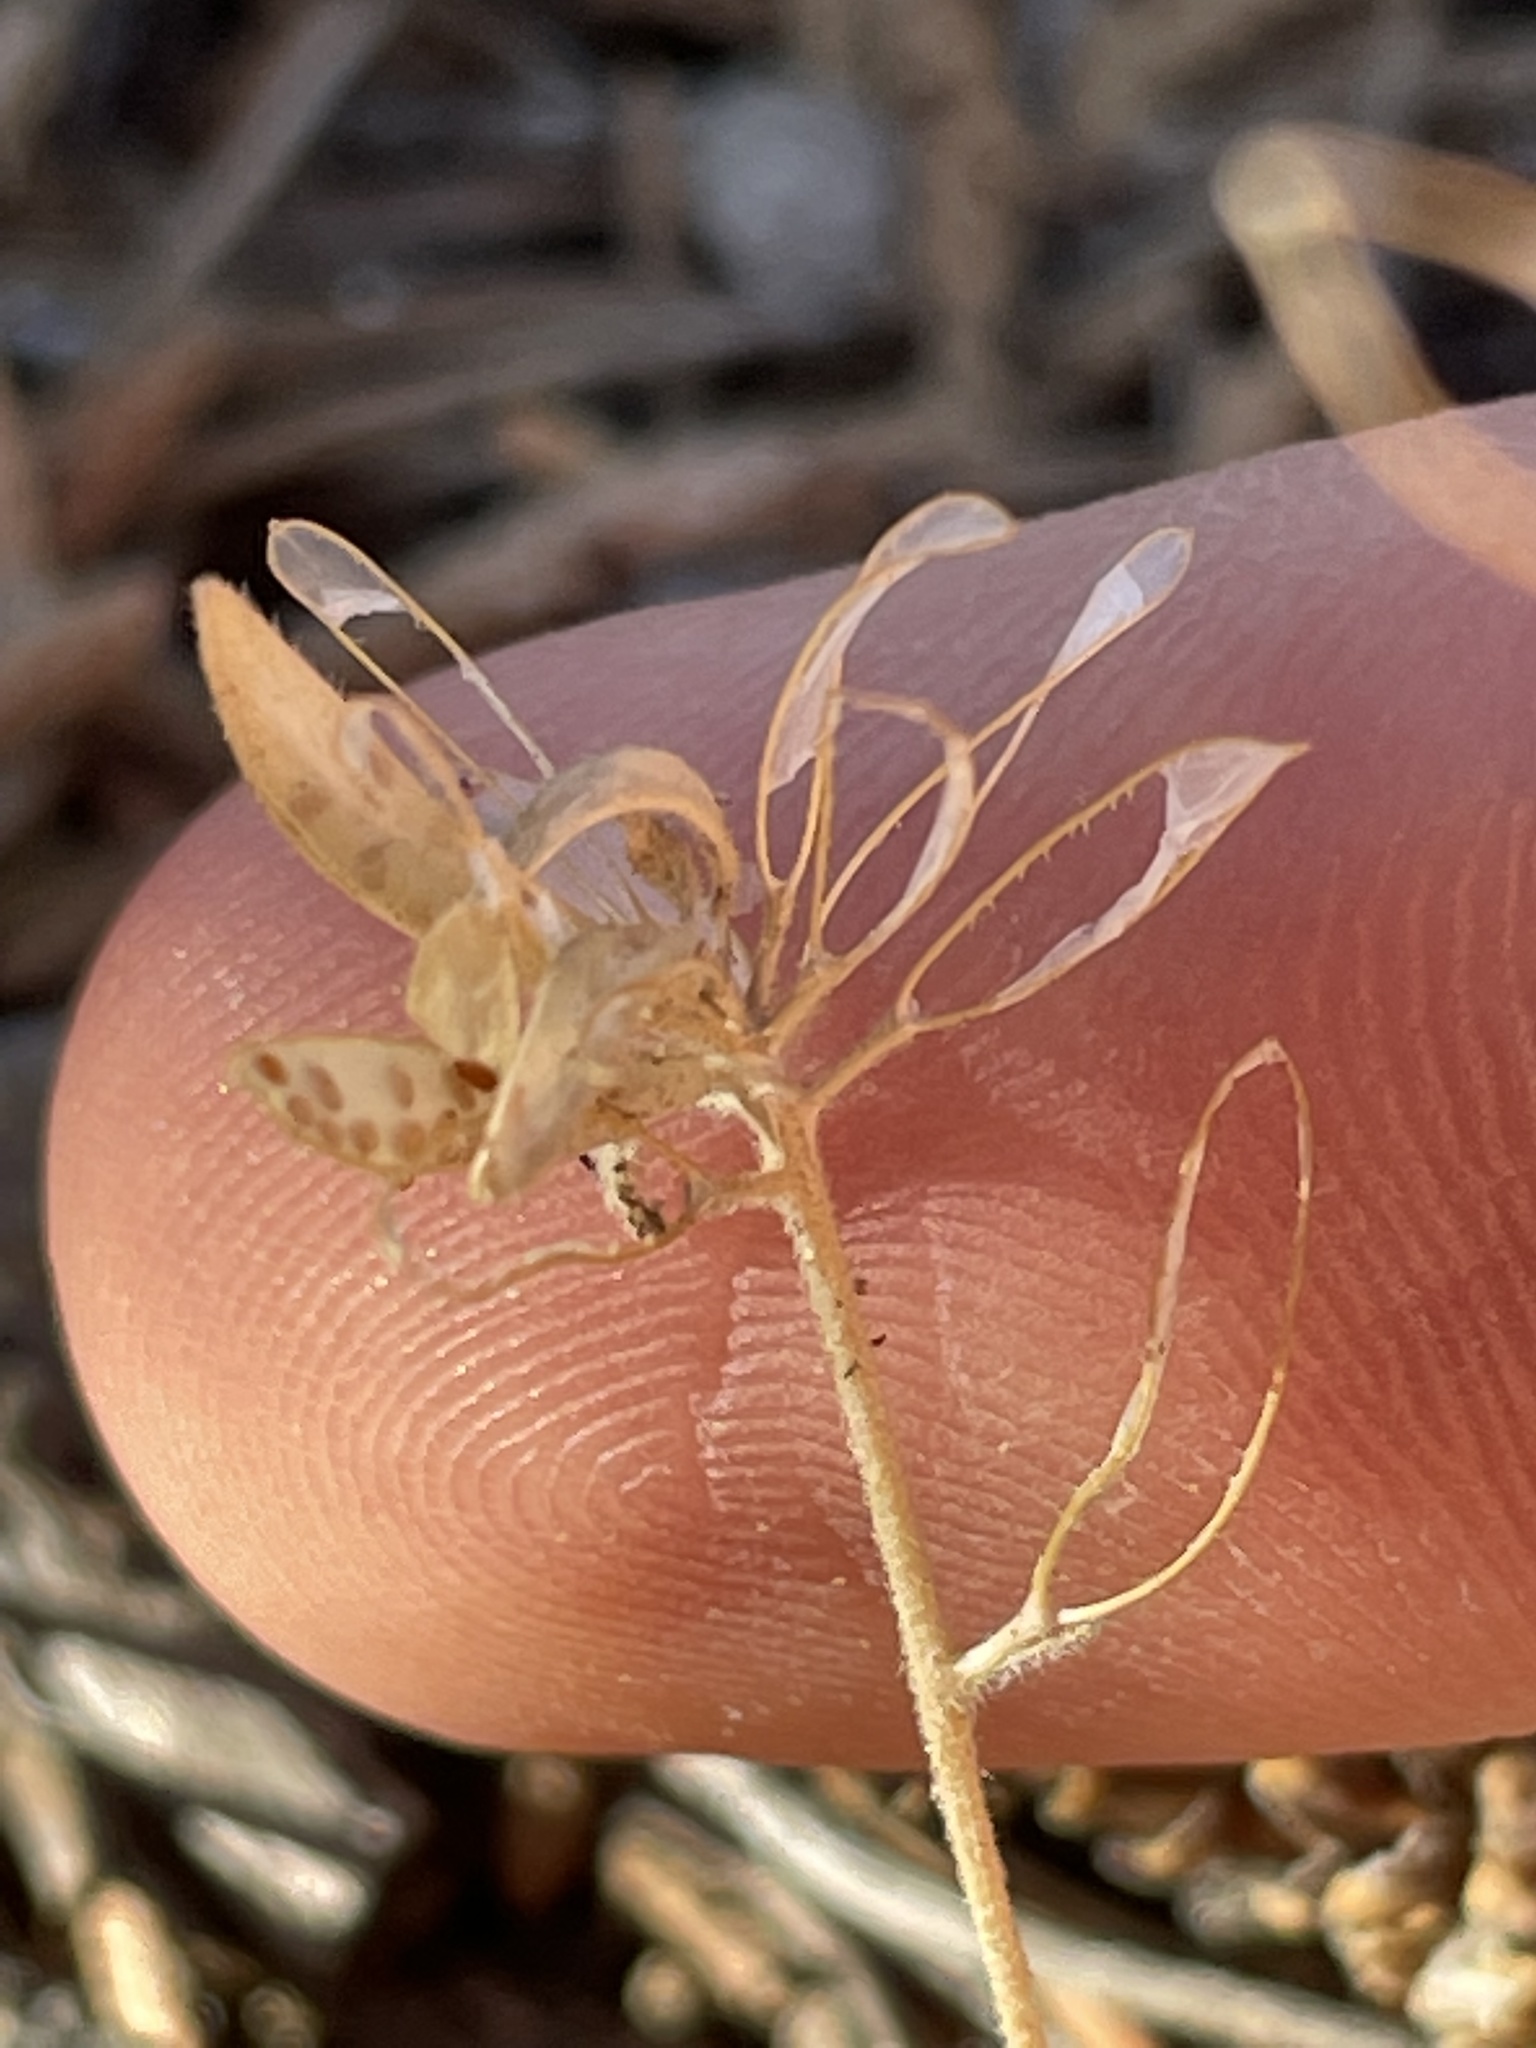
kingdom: Plantae
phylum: Tracheophyta
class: Magnoliopsida
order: Brassicales
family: Brassicaceae
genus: Tomostima
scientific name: Tomostima cuneifolia
